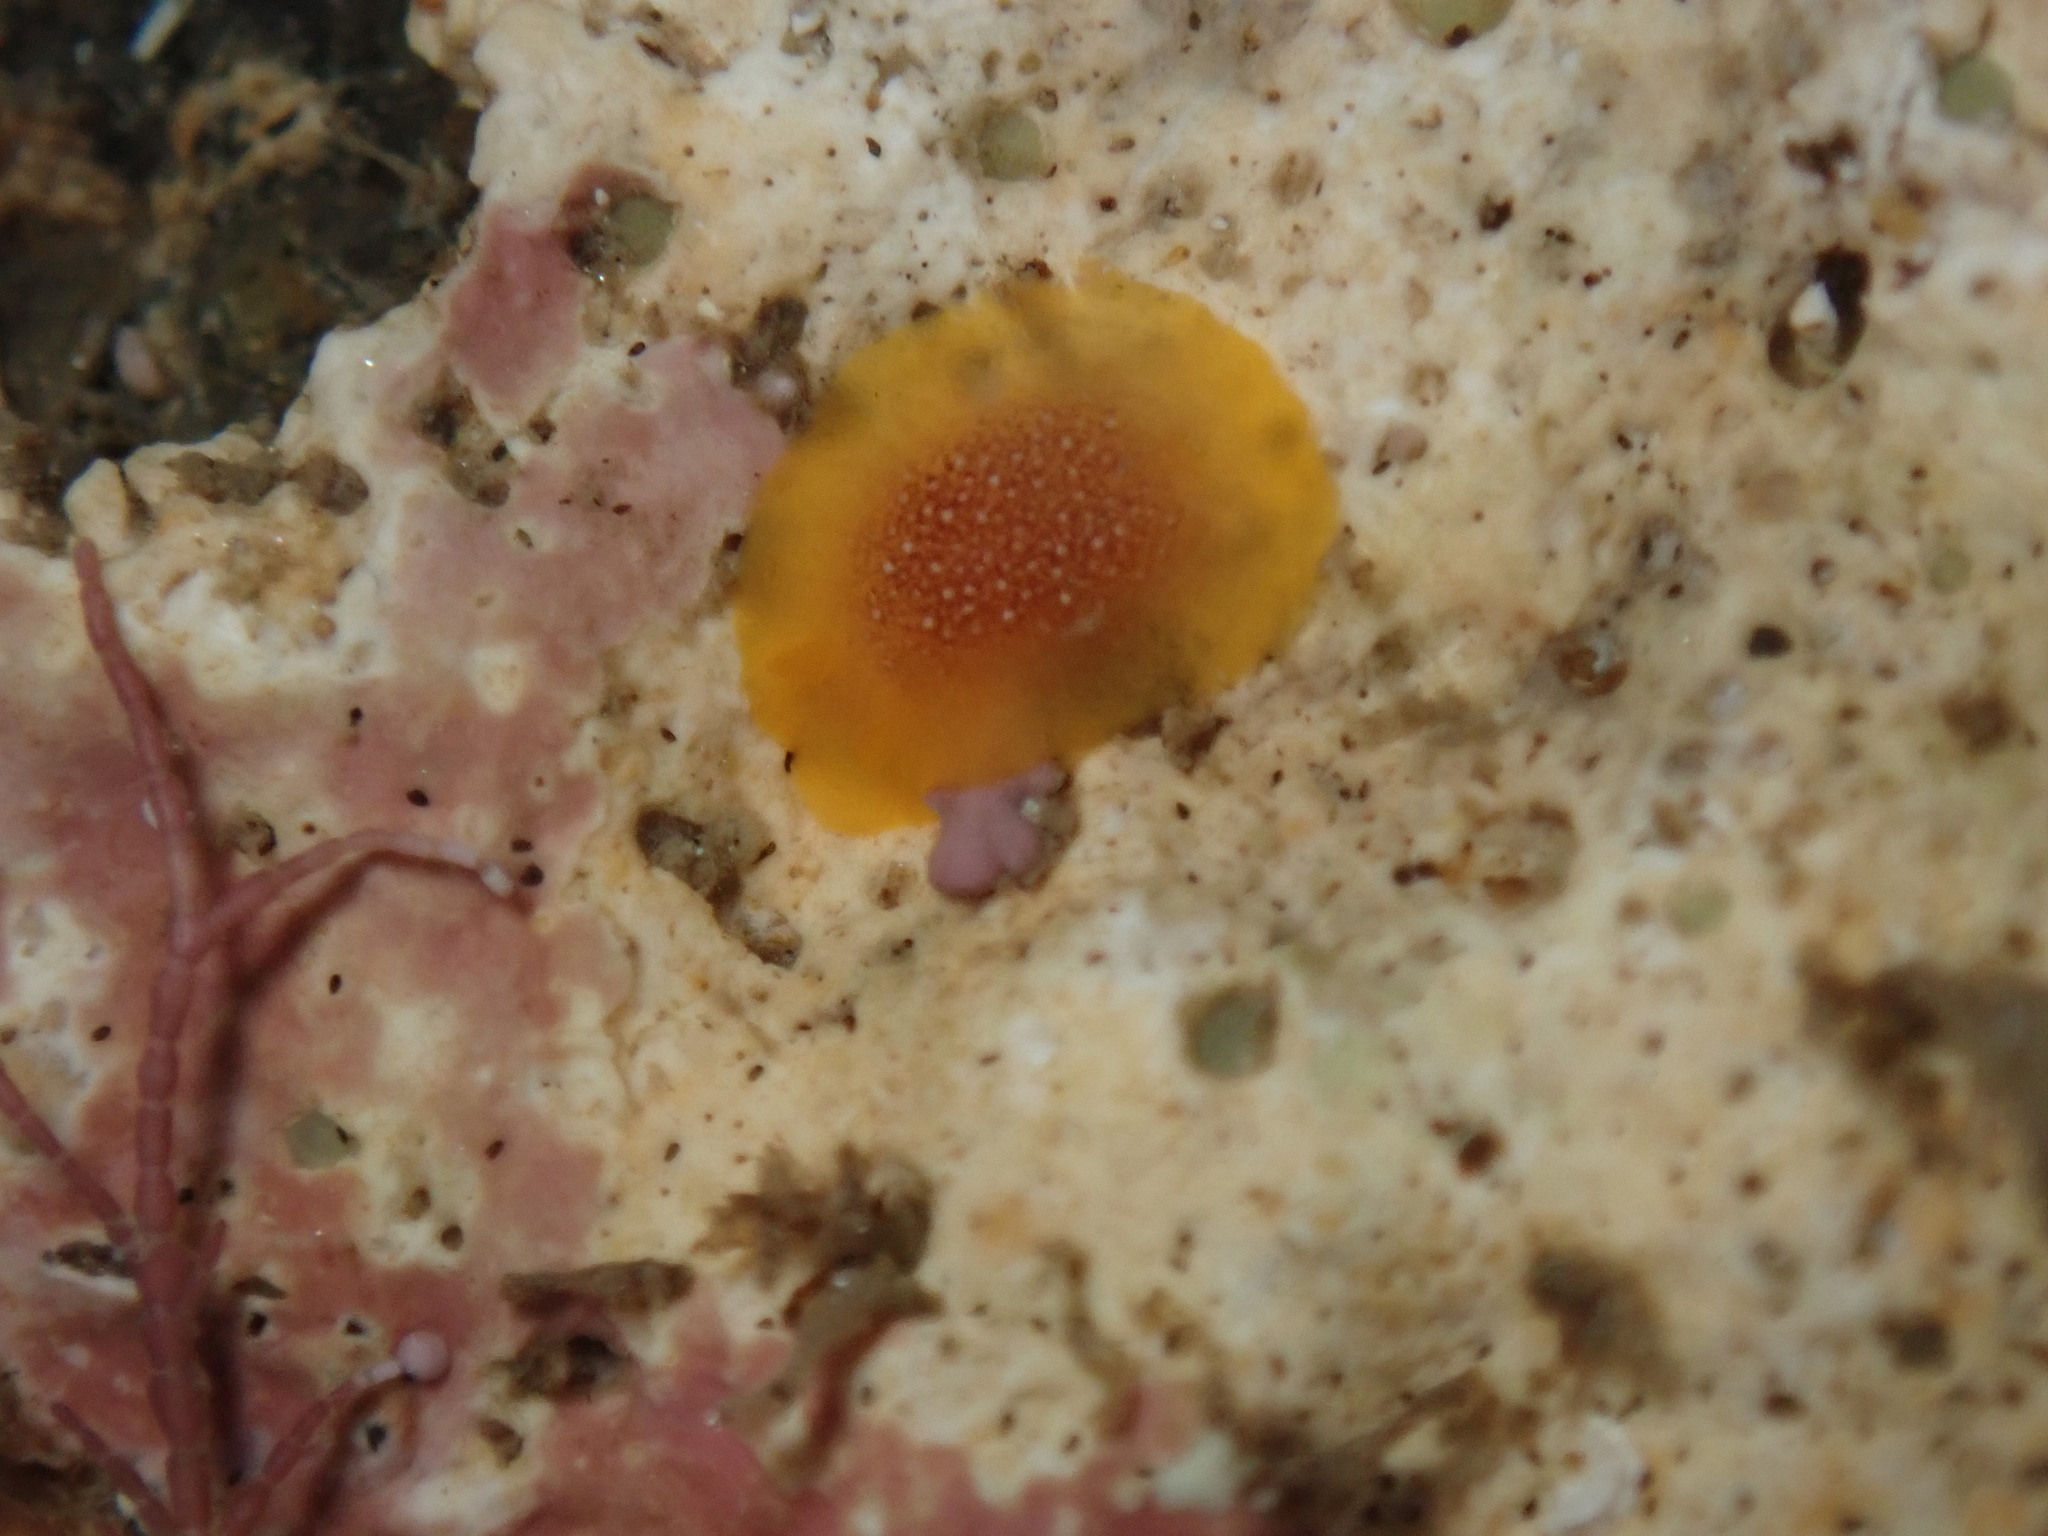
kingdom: Animalia
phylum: Mollusca
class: Gastropoda
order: Nudibranchia
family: Dendrodorididae
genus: Doriopsilla
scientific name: Doriopsilla gemela
